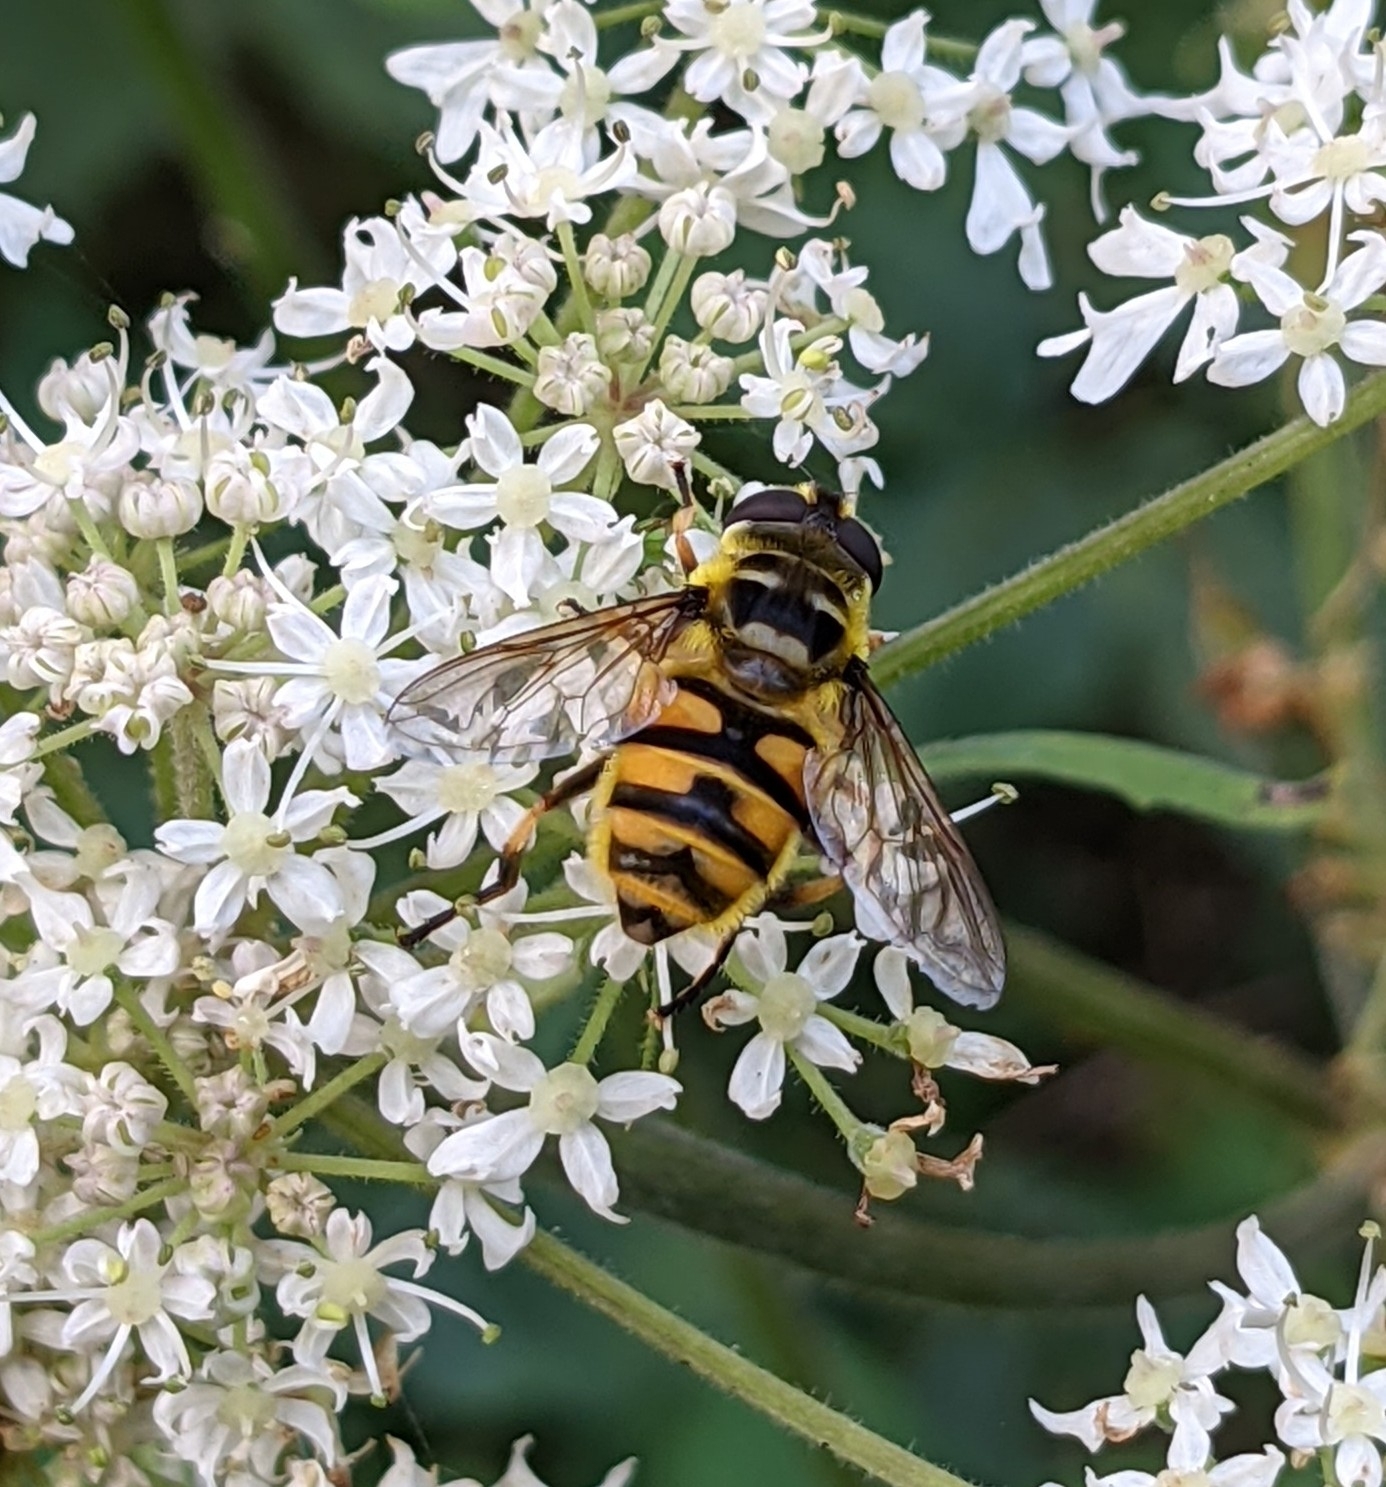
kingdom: Animalia
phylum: Arthropoda
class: Insecta
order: Diptera
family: Syrphidae
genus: Myathropa
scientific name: Myathropa florea
